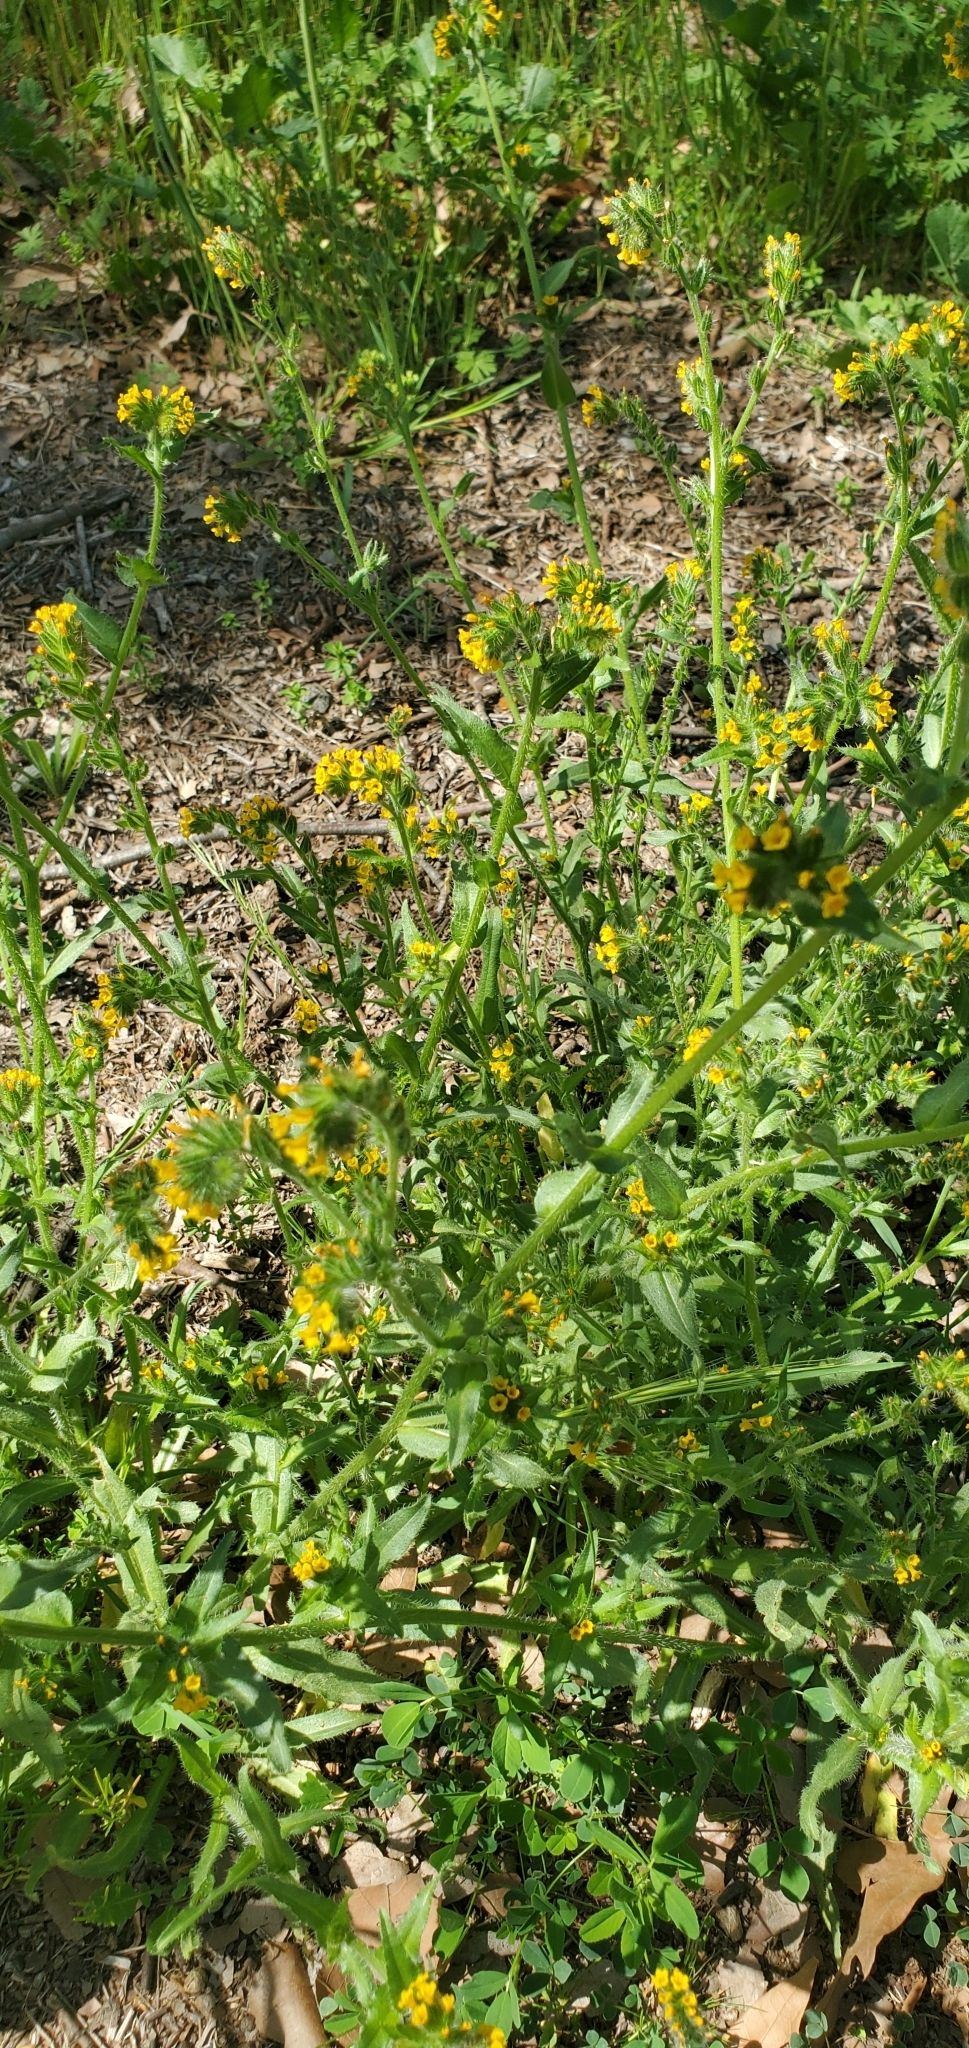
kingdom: Plantae
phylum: Tracheophyta
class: Magnoliopsida
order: Boraginales
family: Boraginaceae
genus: Amsinckia
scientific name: Amsinckia menziesii
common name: Menzies' fiddleneck
